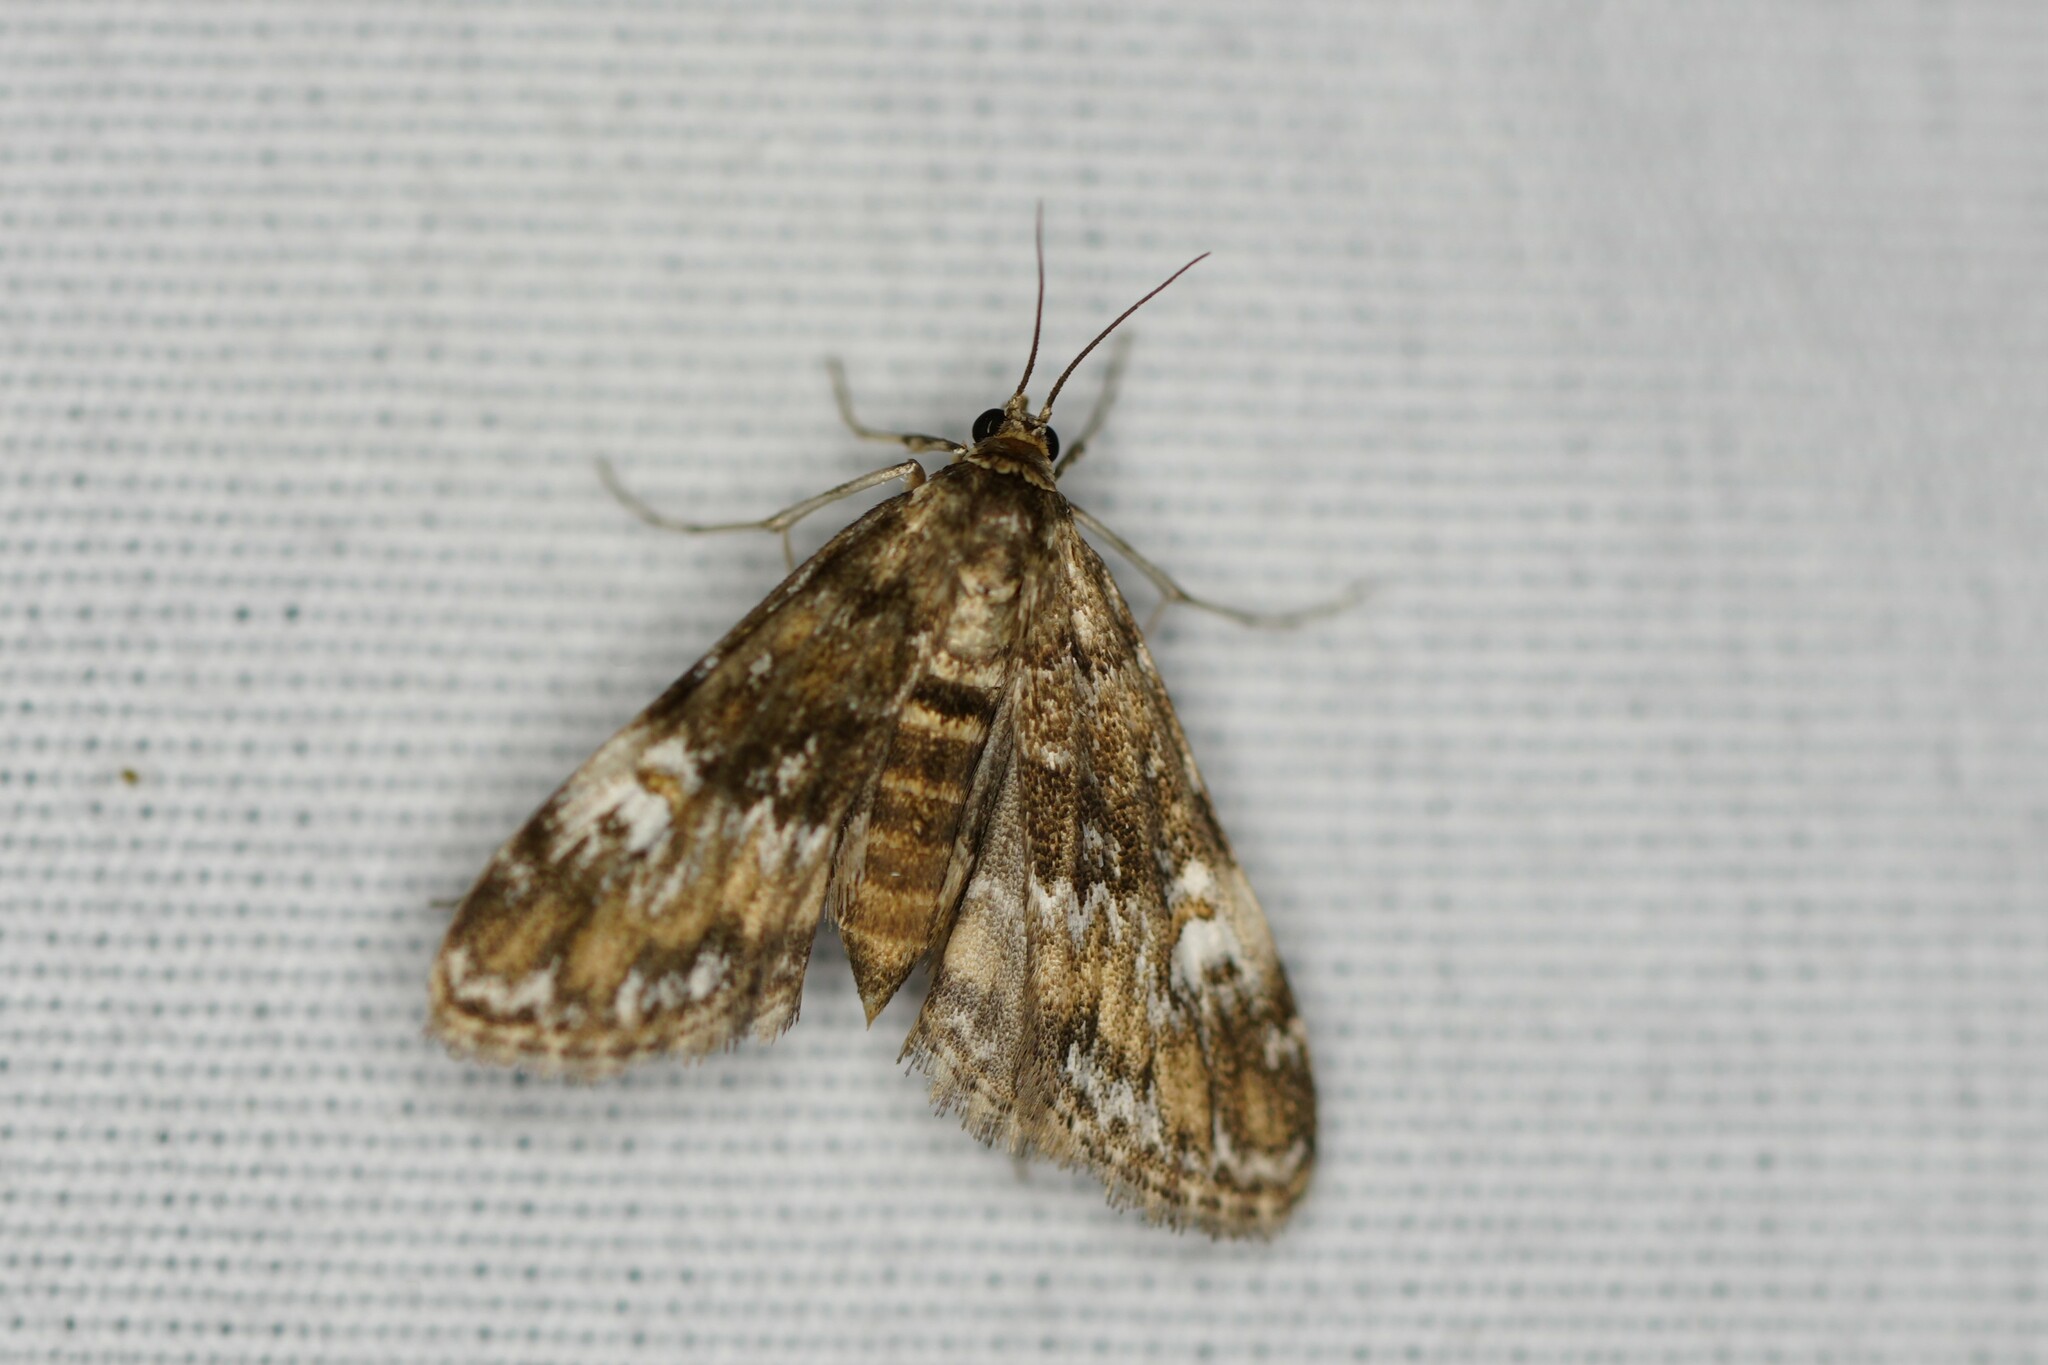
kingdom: Animalia
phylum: Arthropoda
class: Insecta
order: Lepidoptera
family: Crambidae
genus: Elophila
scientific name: Elophila obliteralis
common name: Waterlily leafcutter moth
